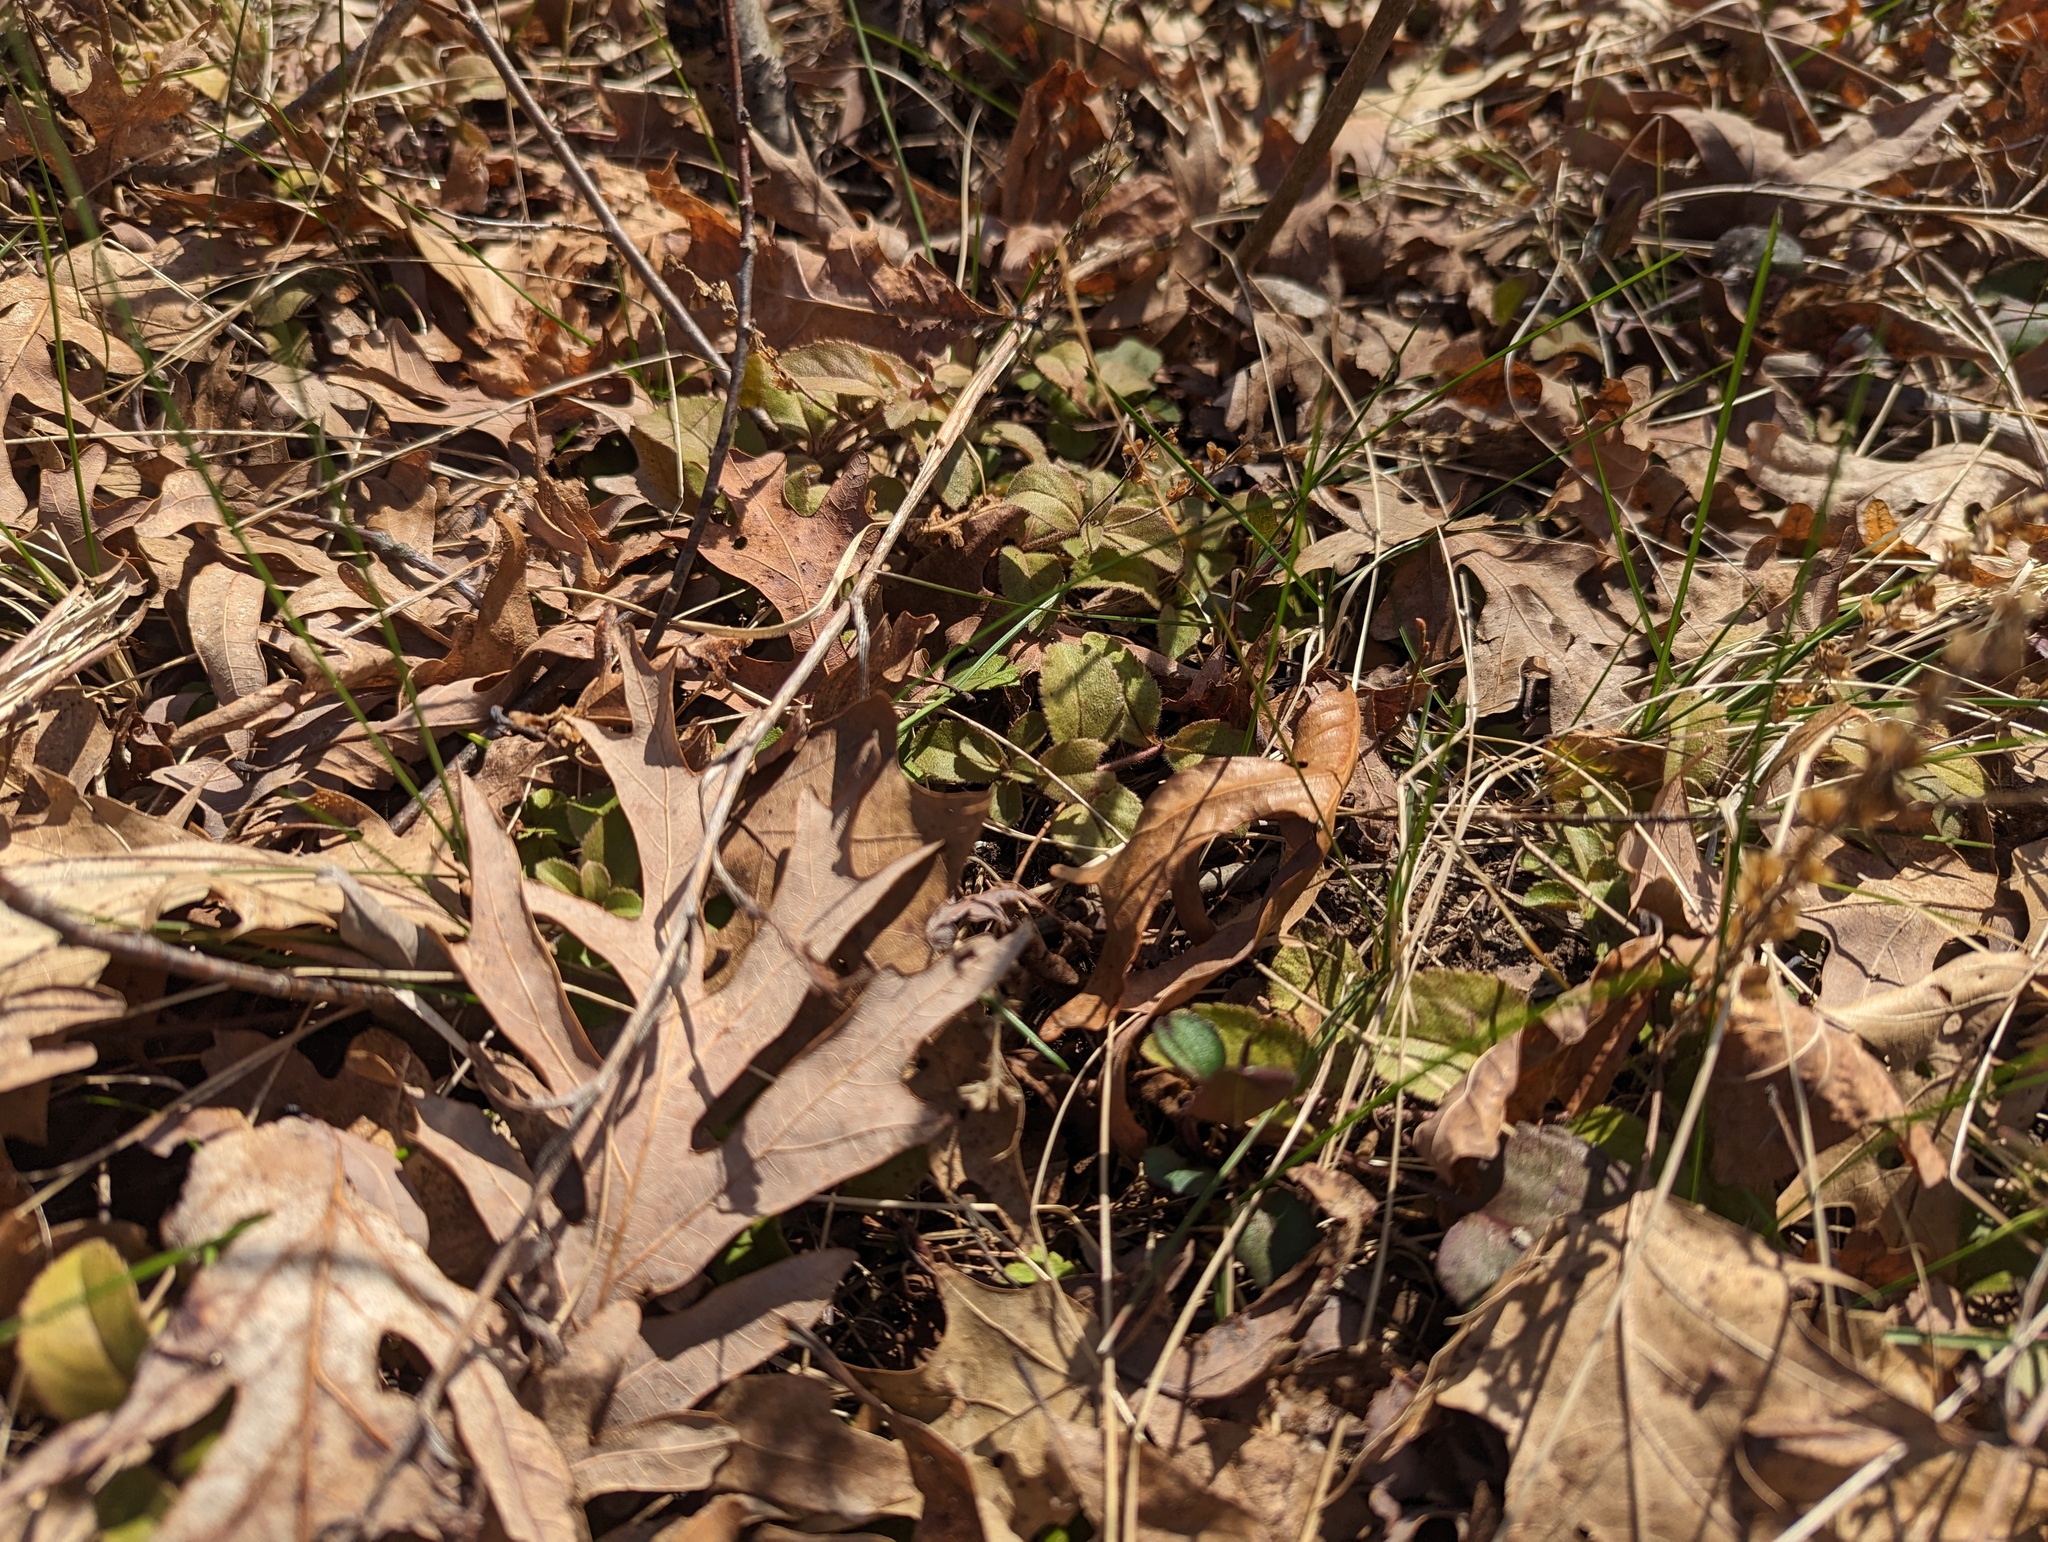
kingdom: Plantae
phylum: Tracheophyta
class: Magnoliopsida
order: Lamiales
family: Plantaginaceae
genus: Veronica
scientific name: Veronica officinalis
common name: Common speedwell
